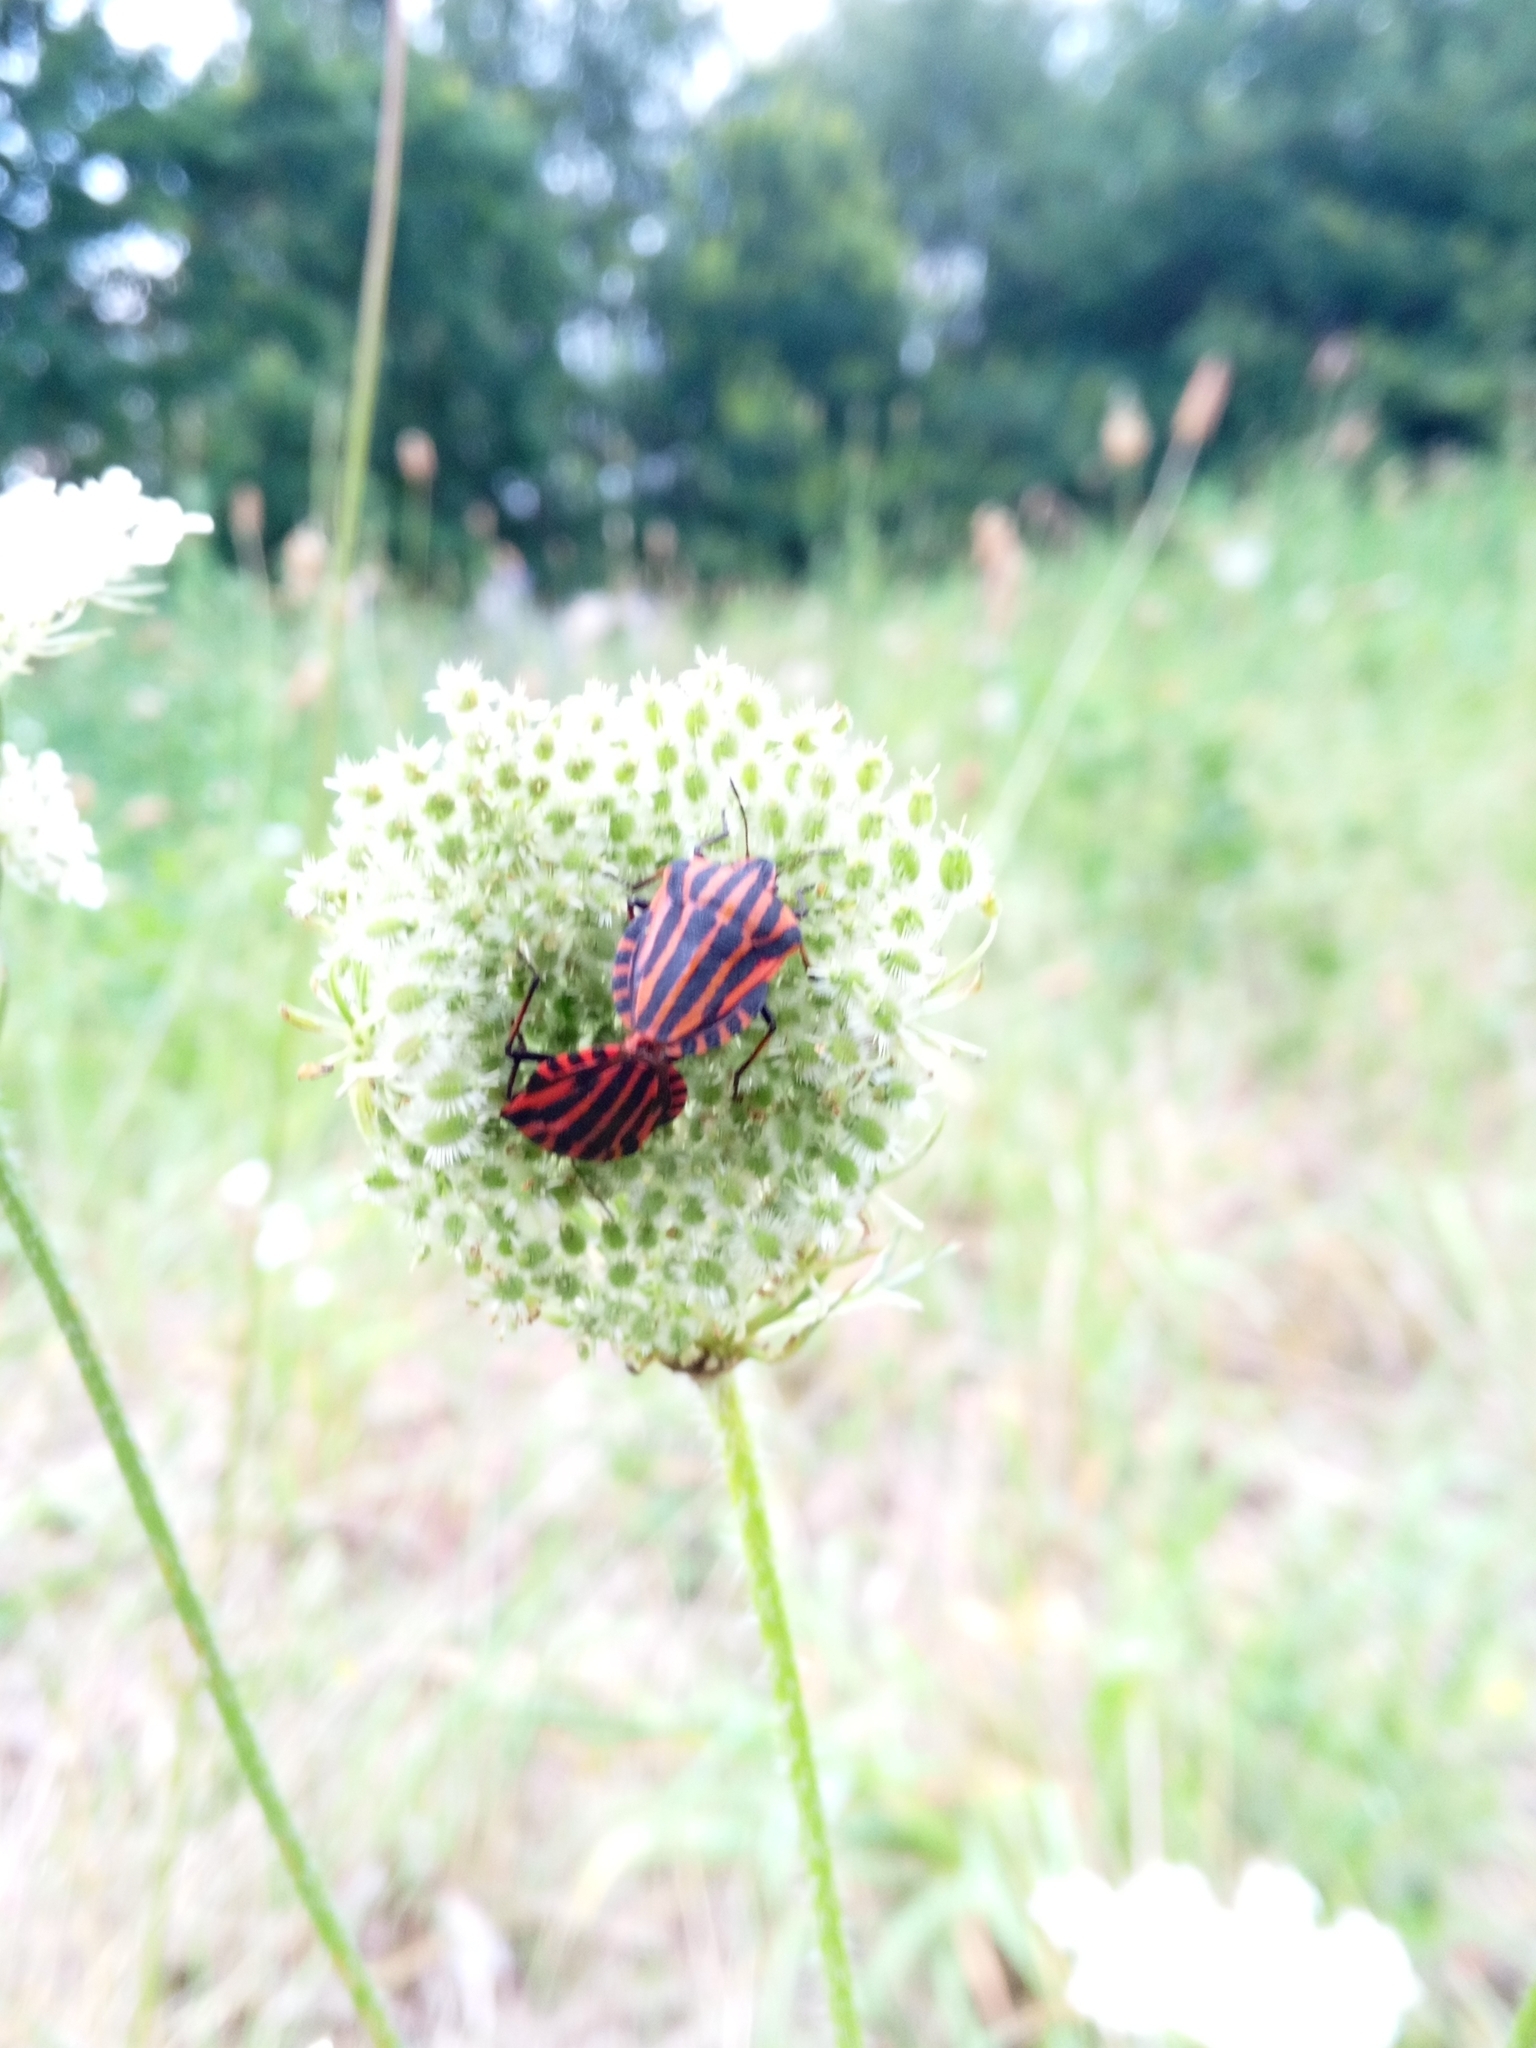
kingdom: Animalia
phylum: Arthropoda
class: Insecta
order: Hemiptera
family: Pentatomidae
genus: Graphosoma
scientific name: Graphosoma italicum
